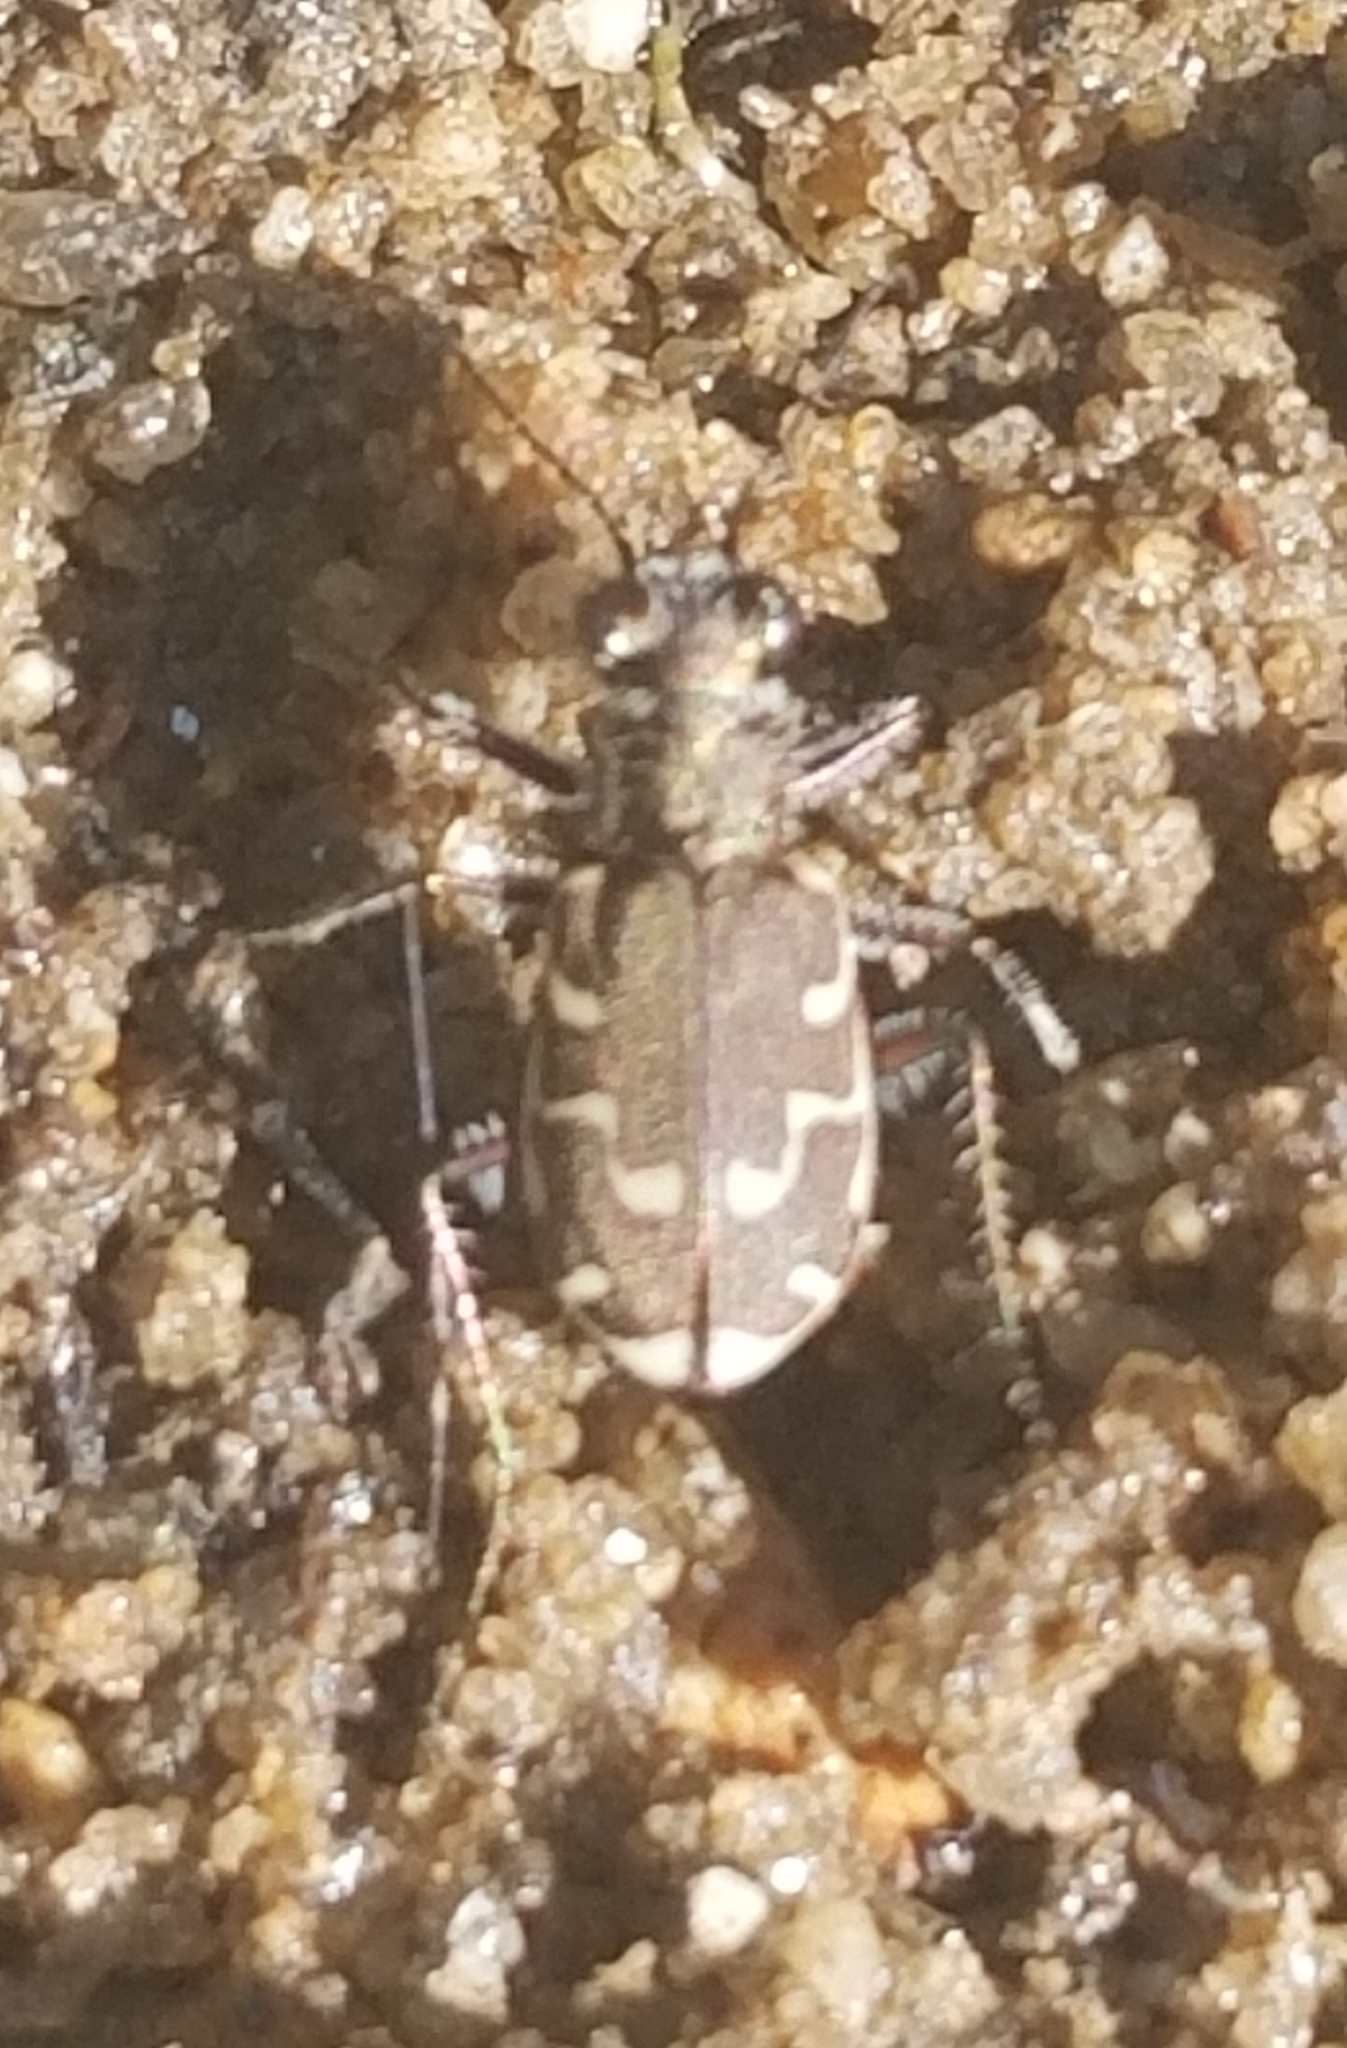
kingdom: Animalia
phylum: Arthropoda
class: Insecta
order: Coleoptera
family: Carabidae
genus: Cicindela
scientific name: Cicindela repanda
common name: Bronzed tiger beetle
